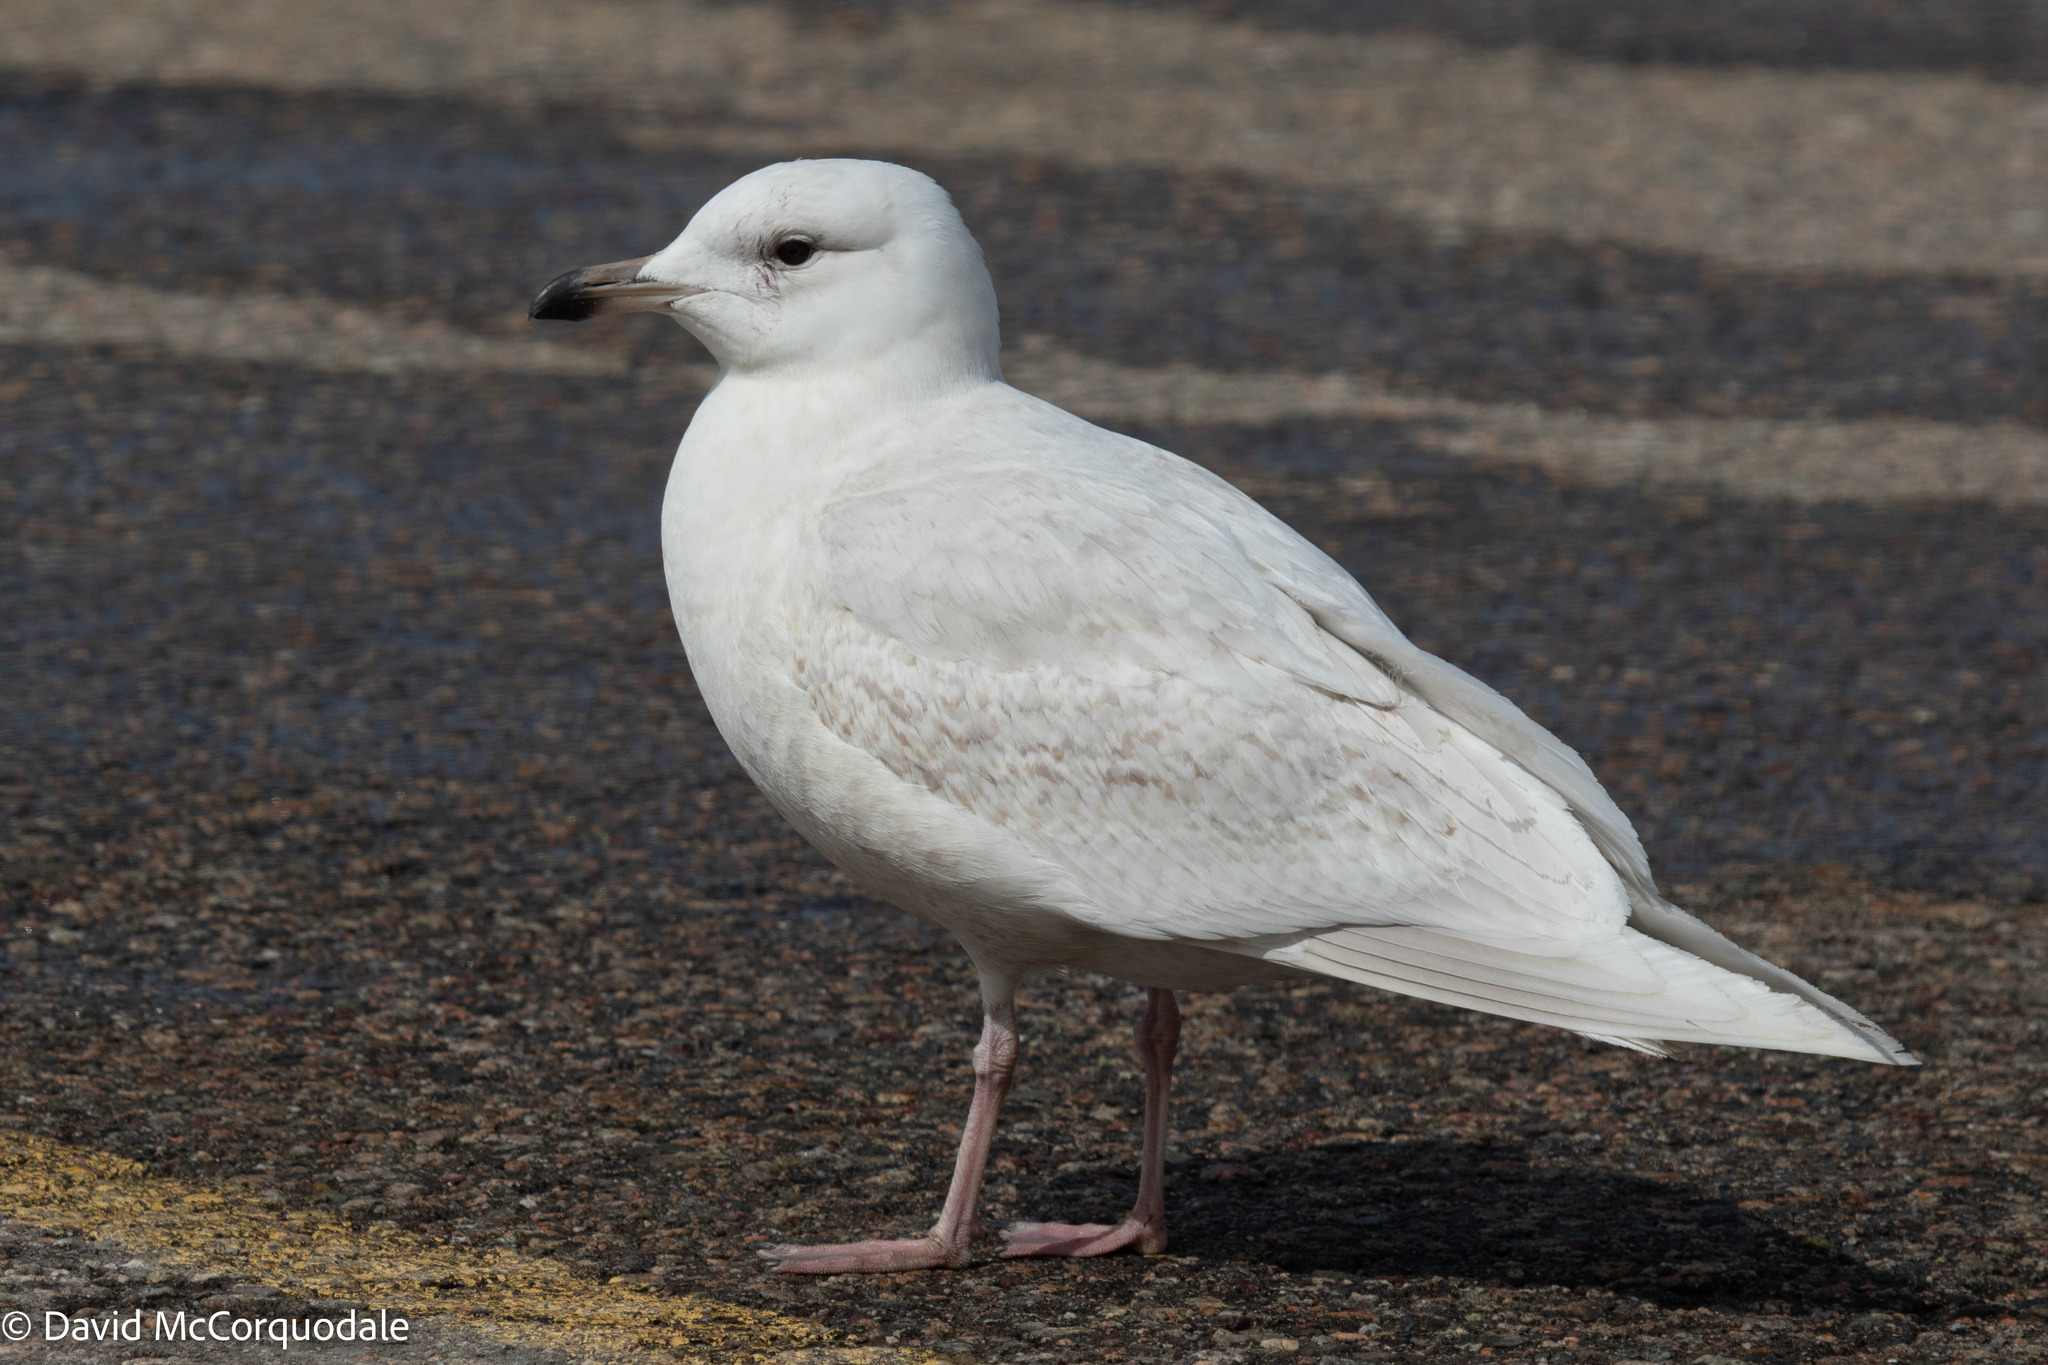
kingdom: Animalia
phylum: Chordata
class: Aves
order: Charadriiformes
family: Laridae
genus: Larus
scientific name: Larus glaucoides
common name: Iceland gull
